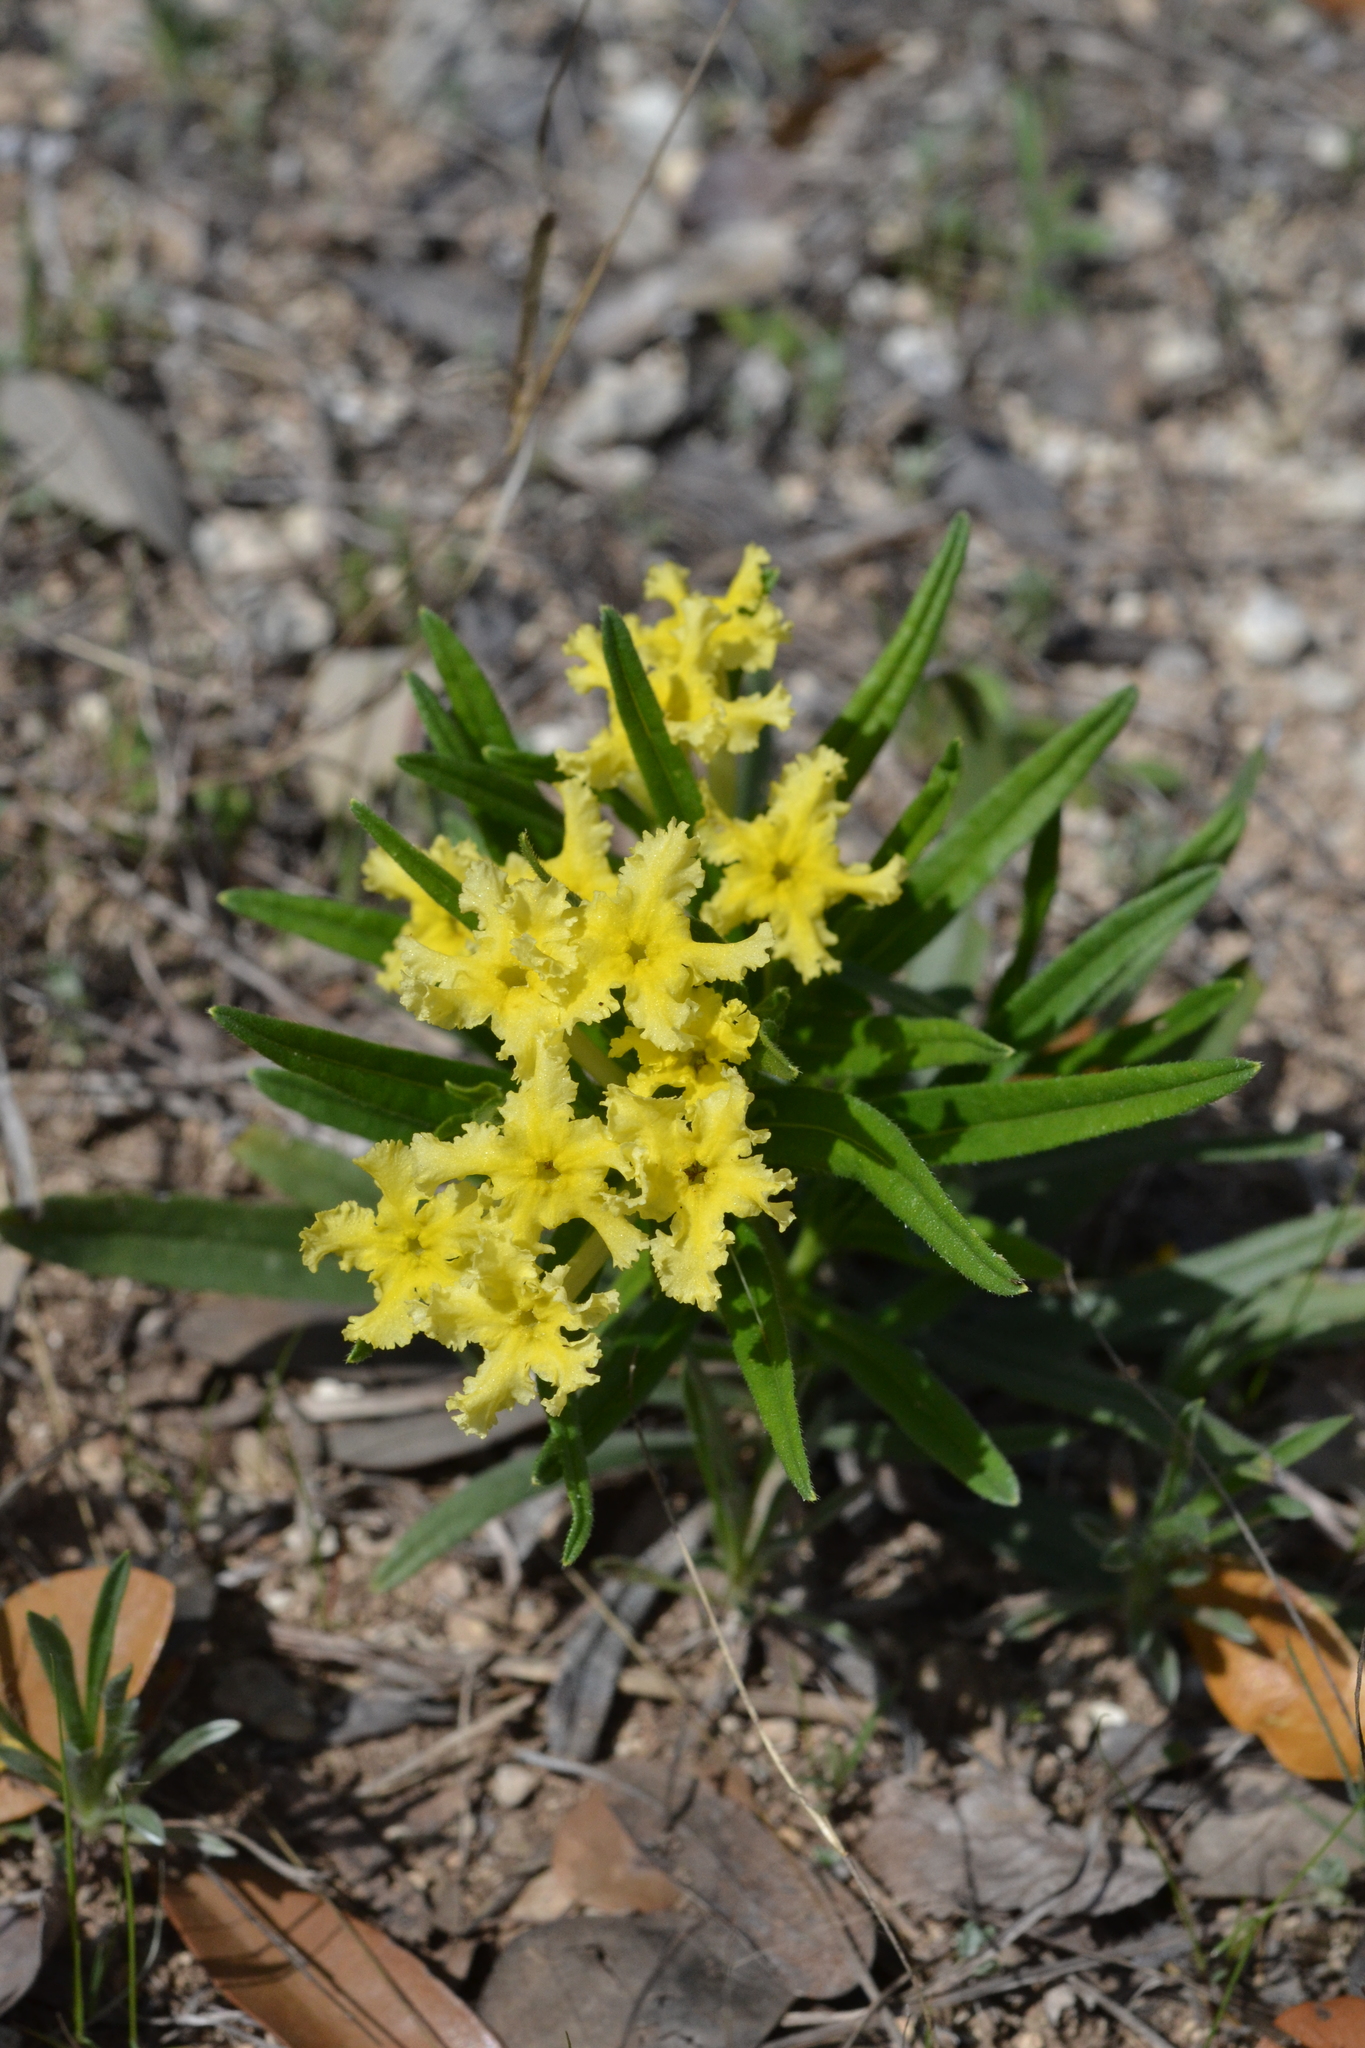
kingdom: Plantae
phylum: Tracheophyta
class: Magnoliopsida
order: Boraginales
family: Boraginaceae
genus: Lithospermum
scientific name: Lithospermum incisum
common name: Fringed gromwell
